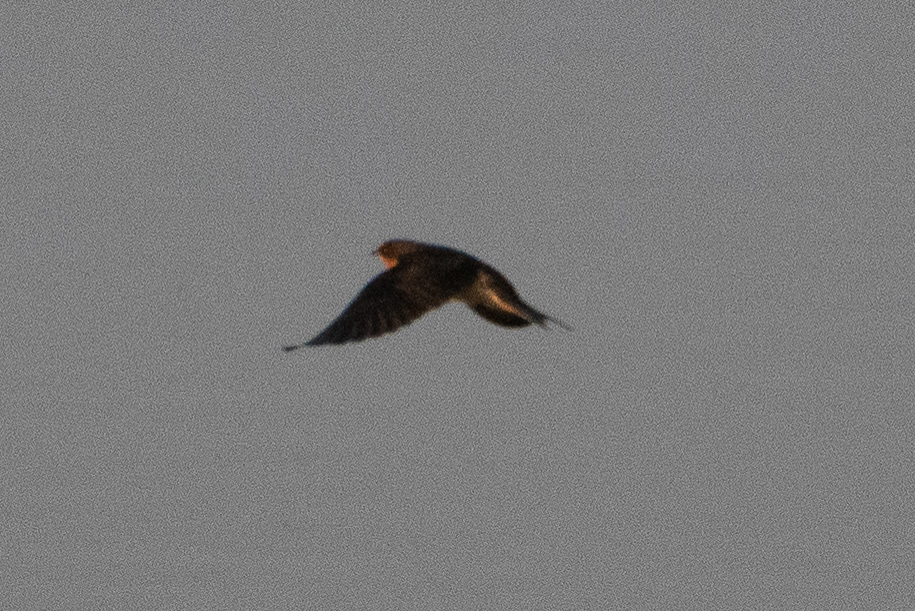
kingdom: Animalia
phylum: Chordata
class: Aves
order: Passeriformes
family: Hirundinidae
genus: Hirundo
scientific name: Hirundo rustica
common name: Barn swallow
